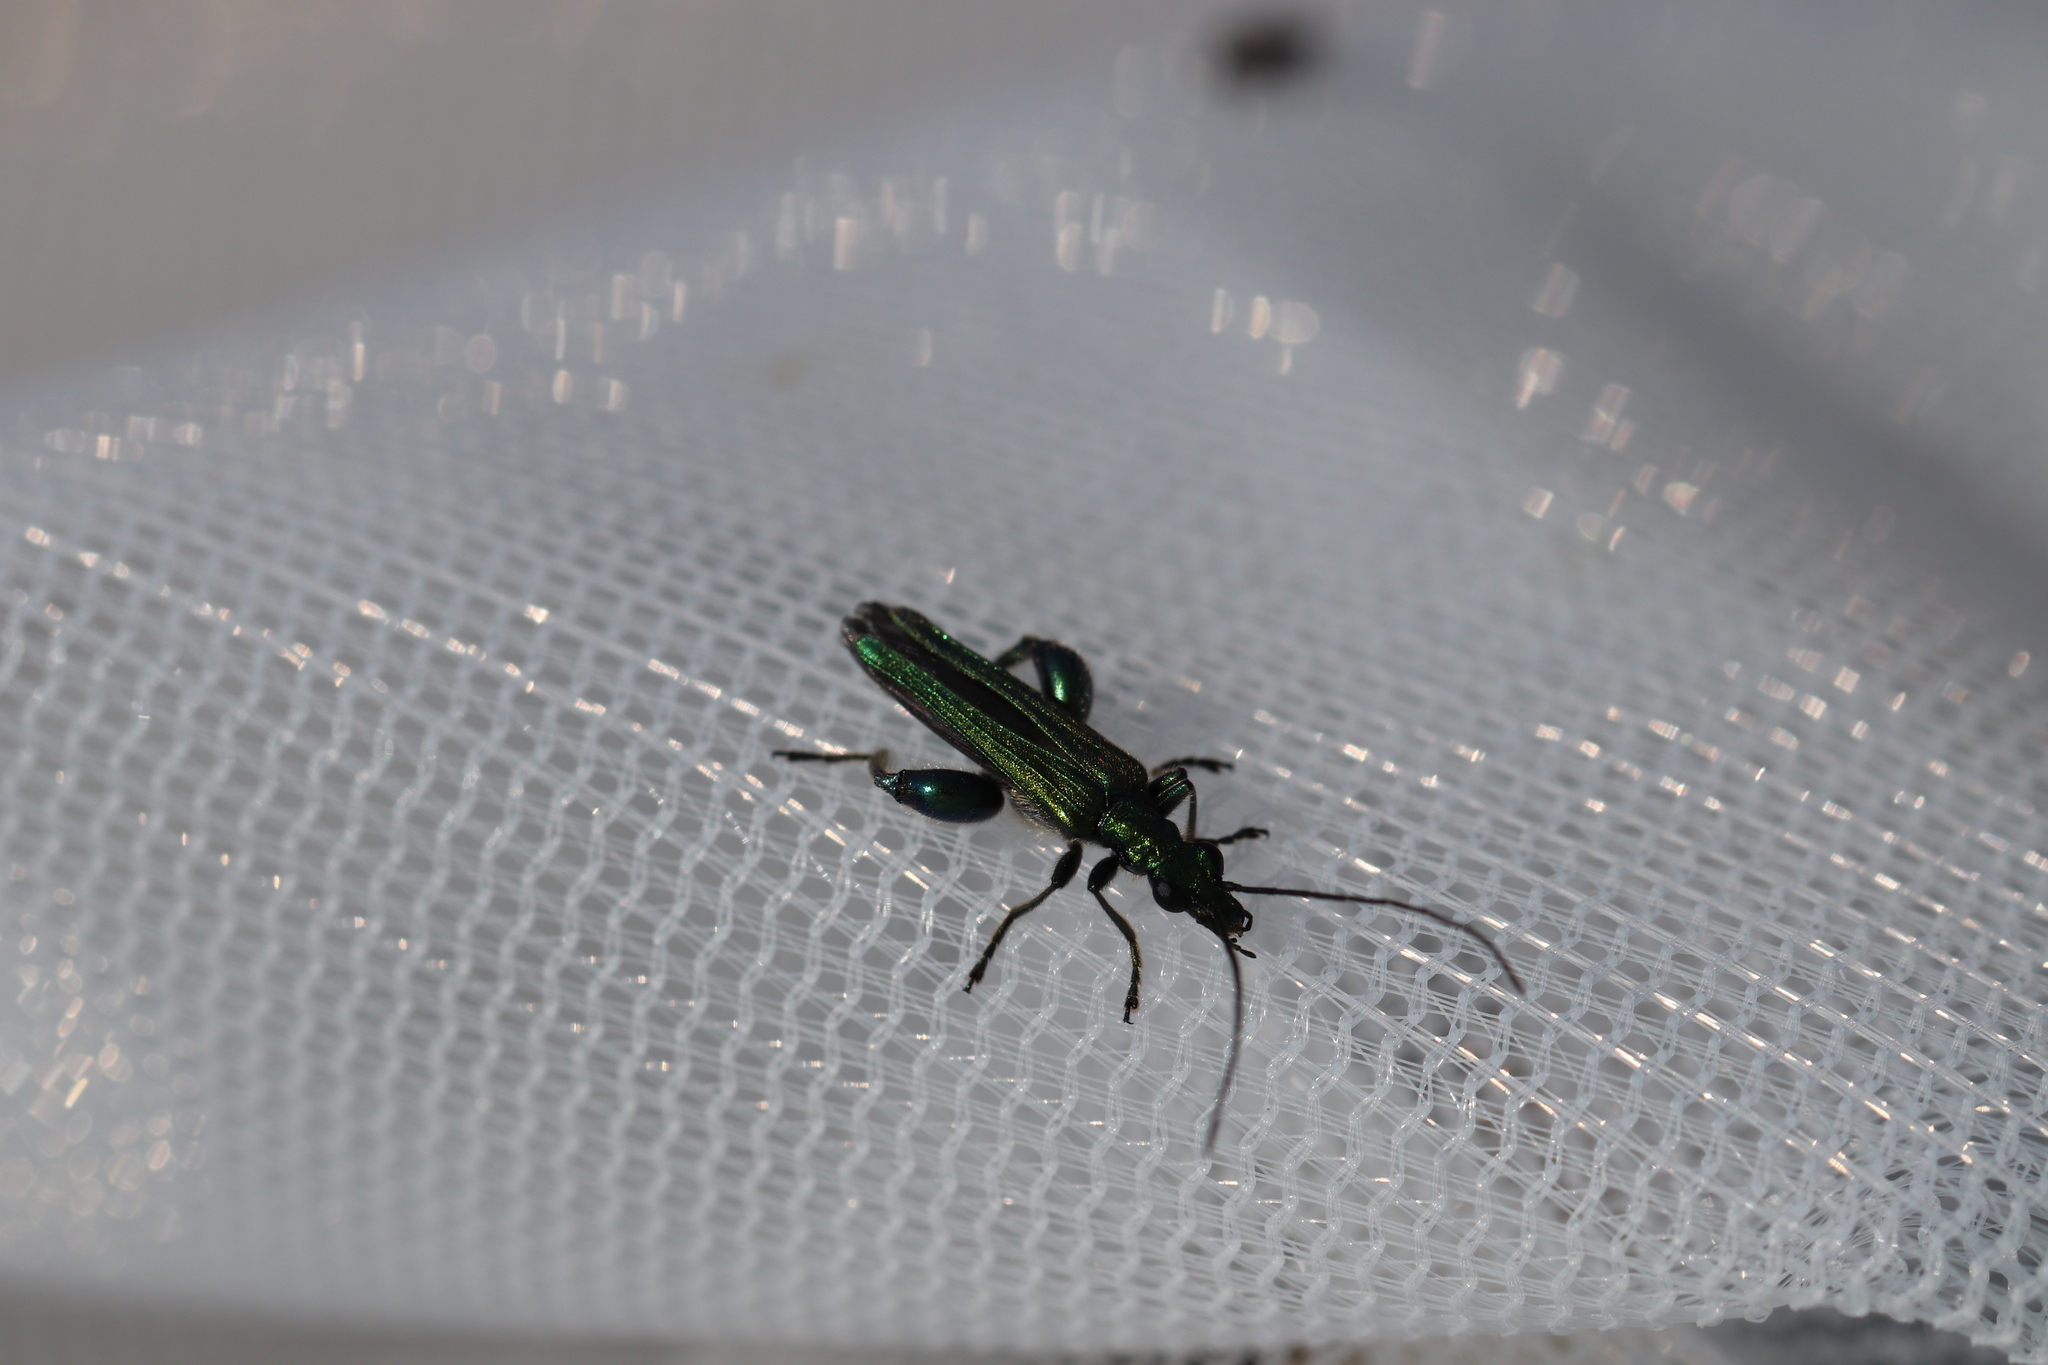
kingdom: Animalia
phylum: Arthropoda
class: Insecta
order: Coleoptera
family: Oedemeridae
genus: Oedemera
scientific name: Oedemera nobilis
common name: Swollen-thighed beetle
